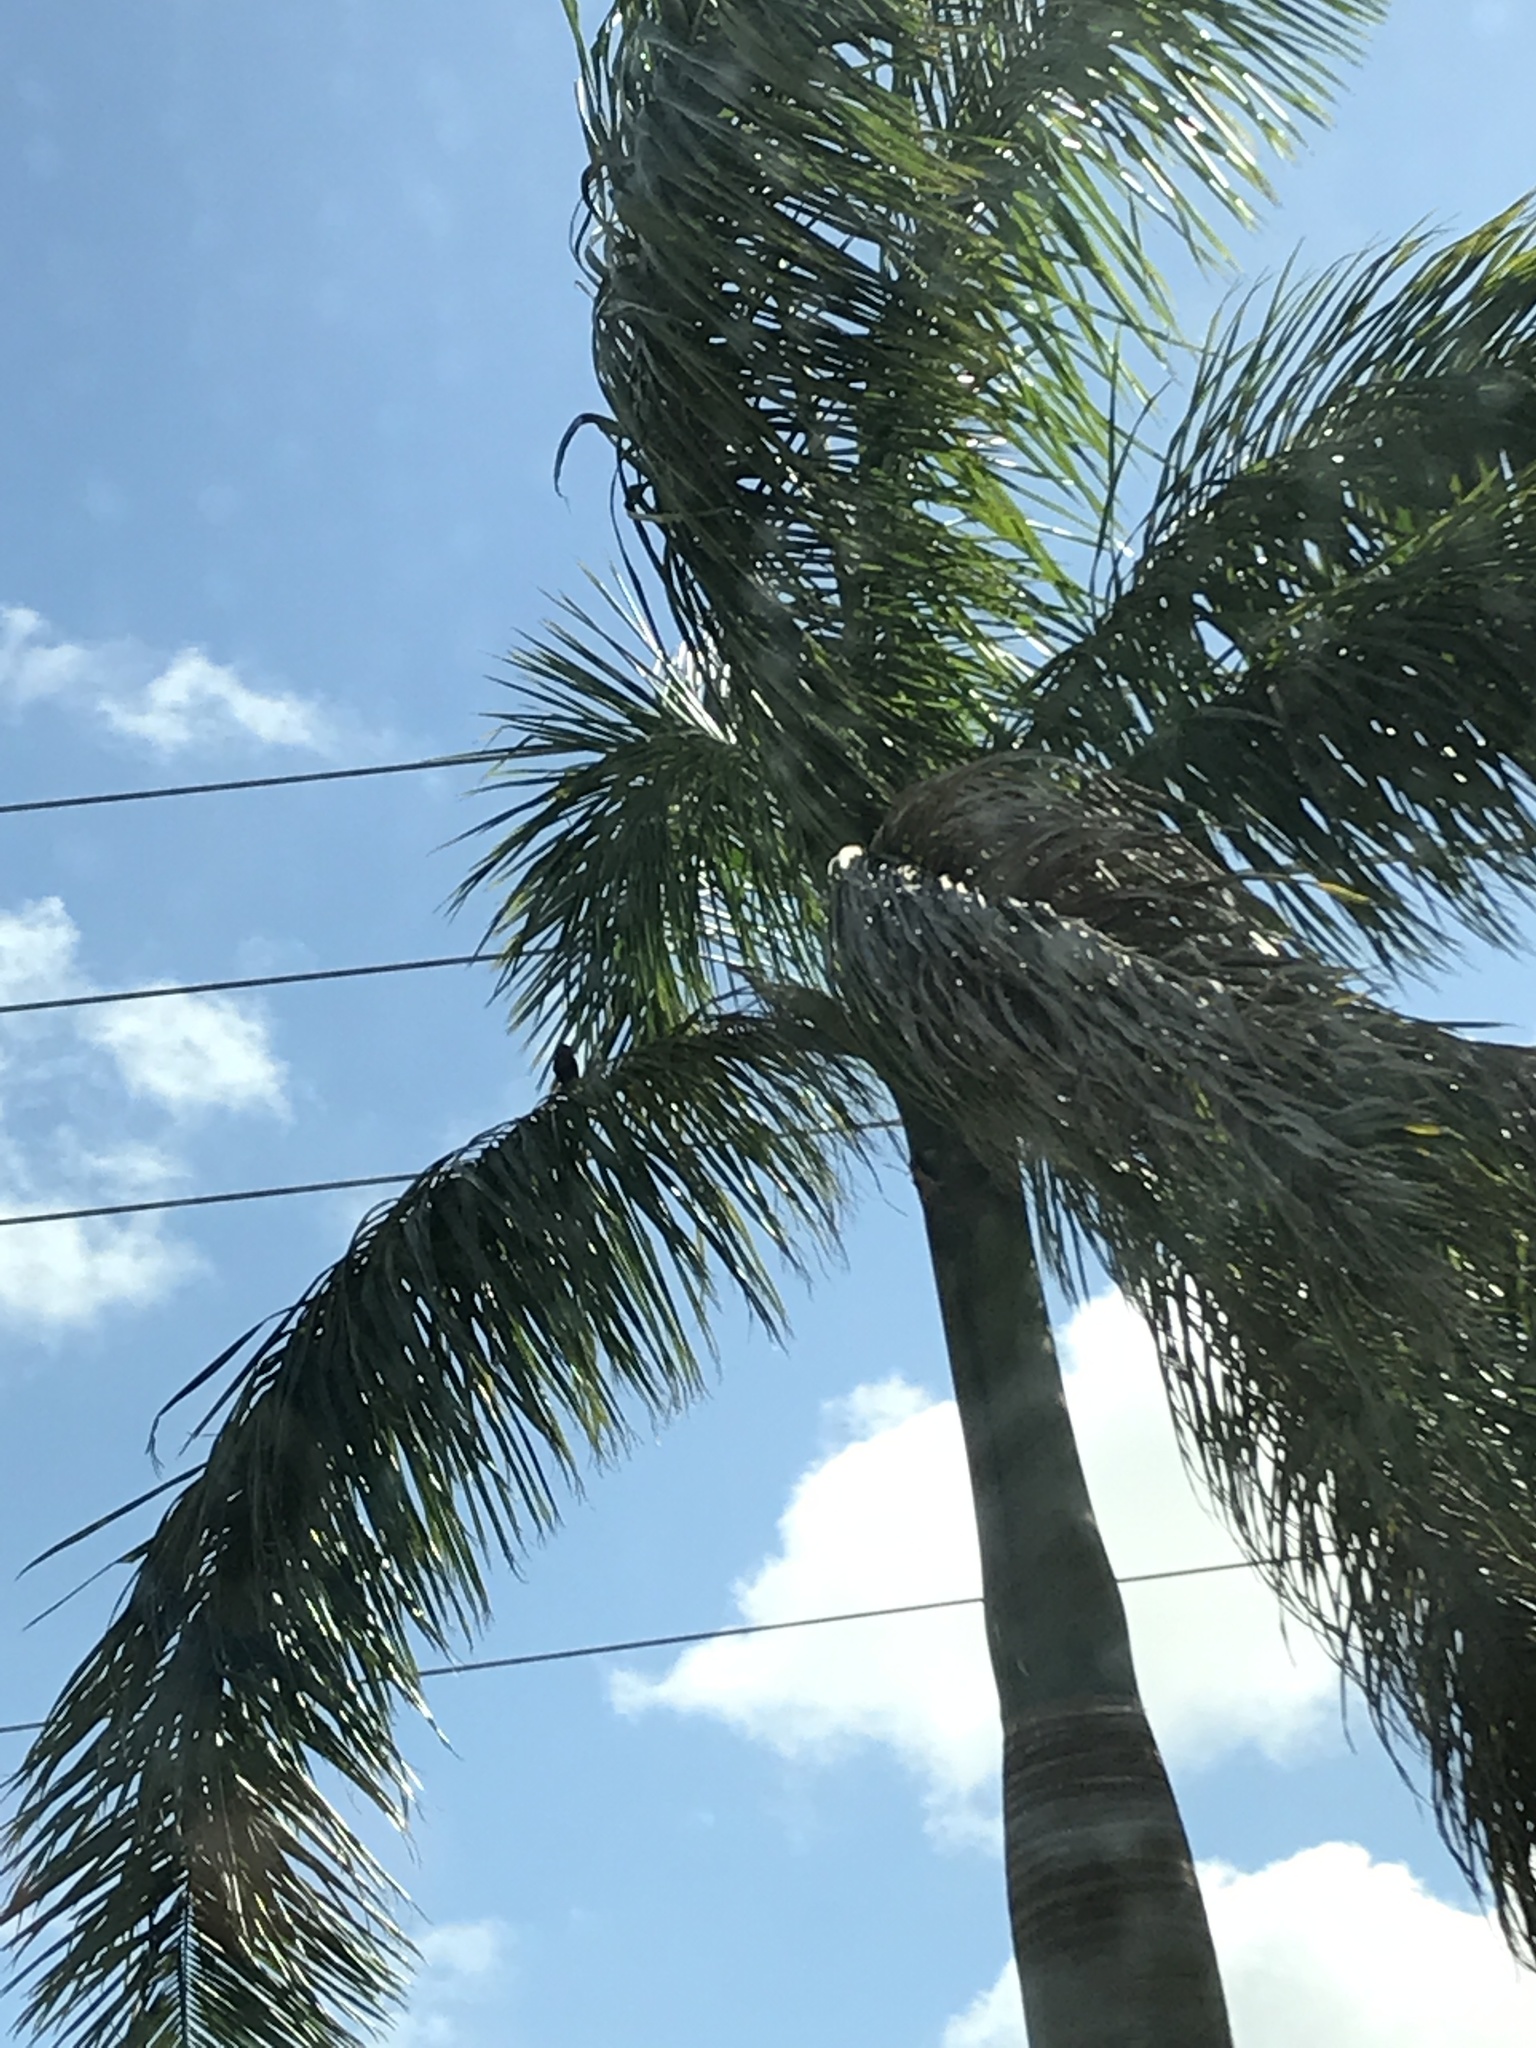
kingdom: Plantae
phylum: Tracheophyta
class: Liliopsida
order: Arecales
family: Arecaceae
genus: Roystonea
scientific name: Roystonea regia
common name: Florida royal palm
